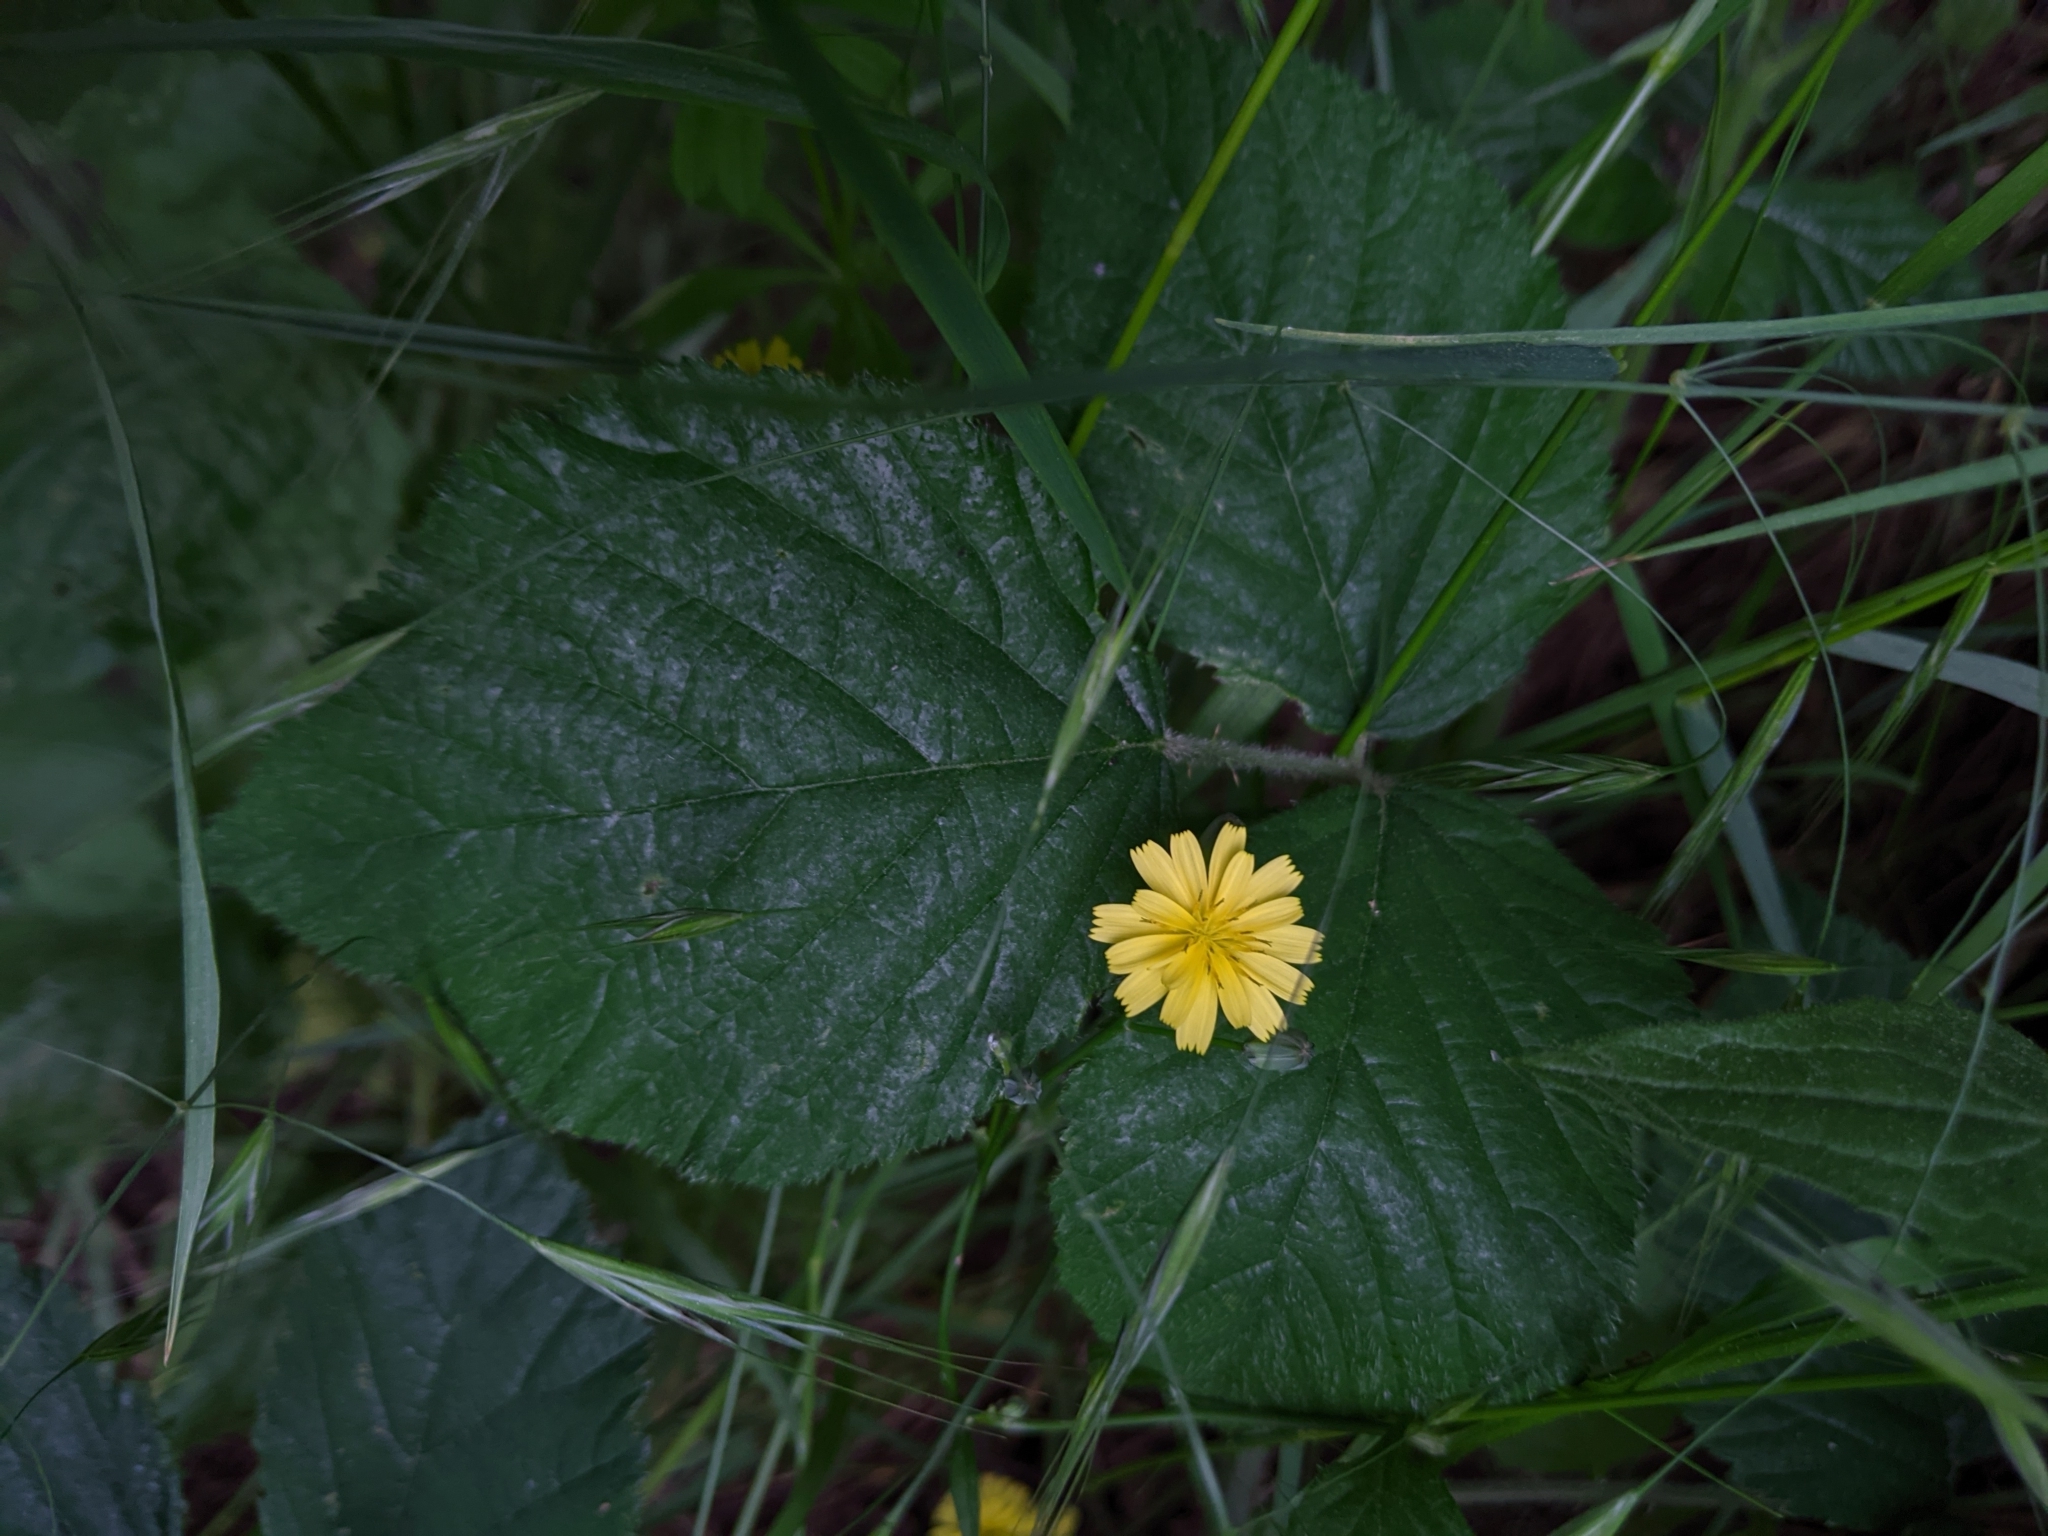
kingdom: Plantae
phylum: Tracheophyta
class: Magnoliopsida
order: Asterales
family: Asteraceae
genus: Lapsana
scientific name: Lapsana communis
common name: Nipplewort
